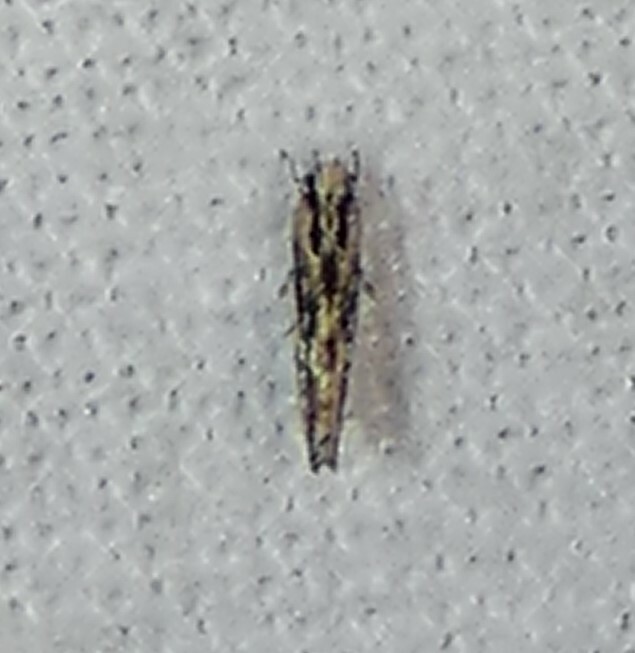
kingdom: Animalia
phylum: Arthropoda
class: Insecta
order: Lepidoptera
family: Cosmopterigidae
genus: Melanocinclis
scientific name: Melanocinclis lineigera
